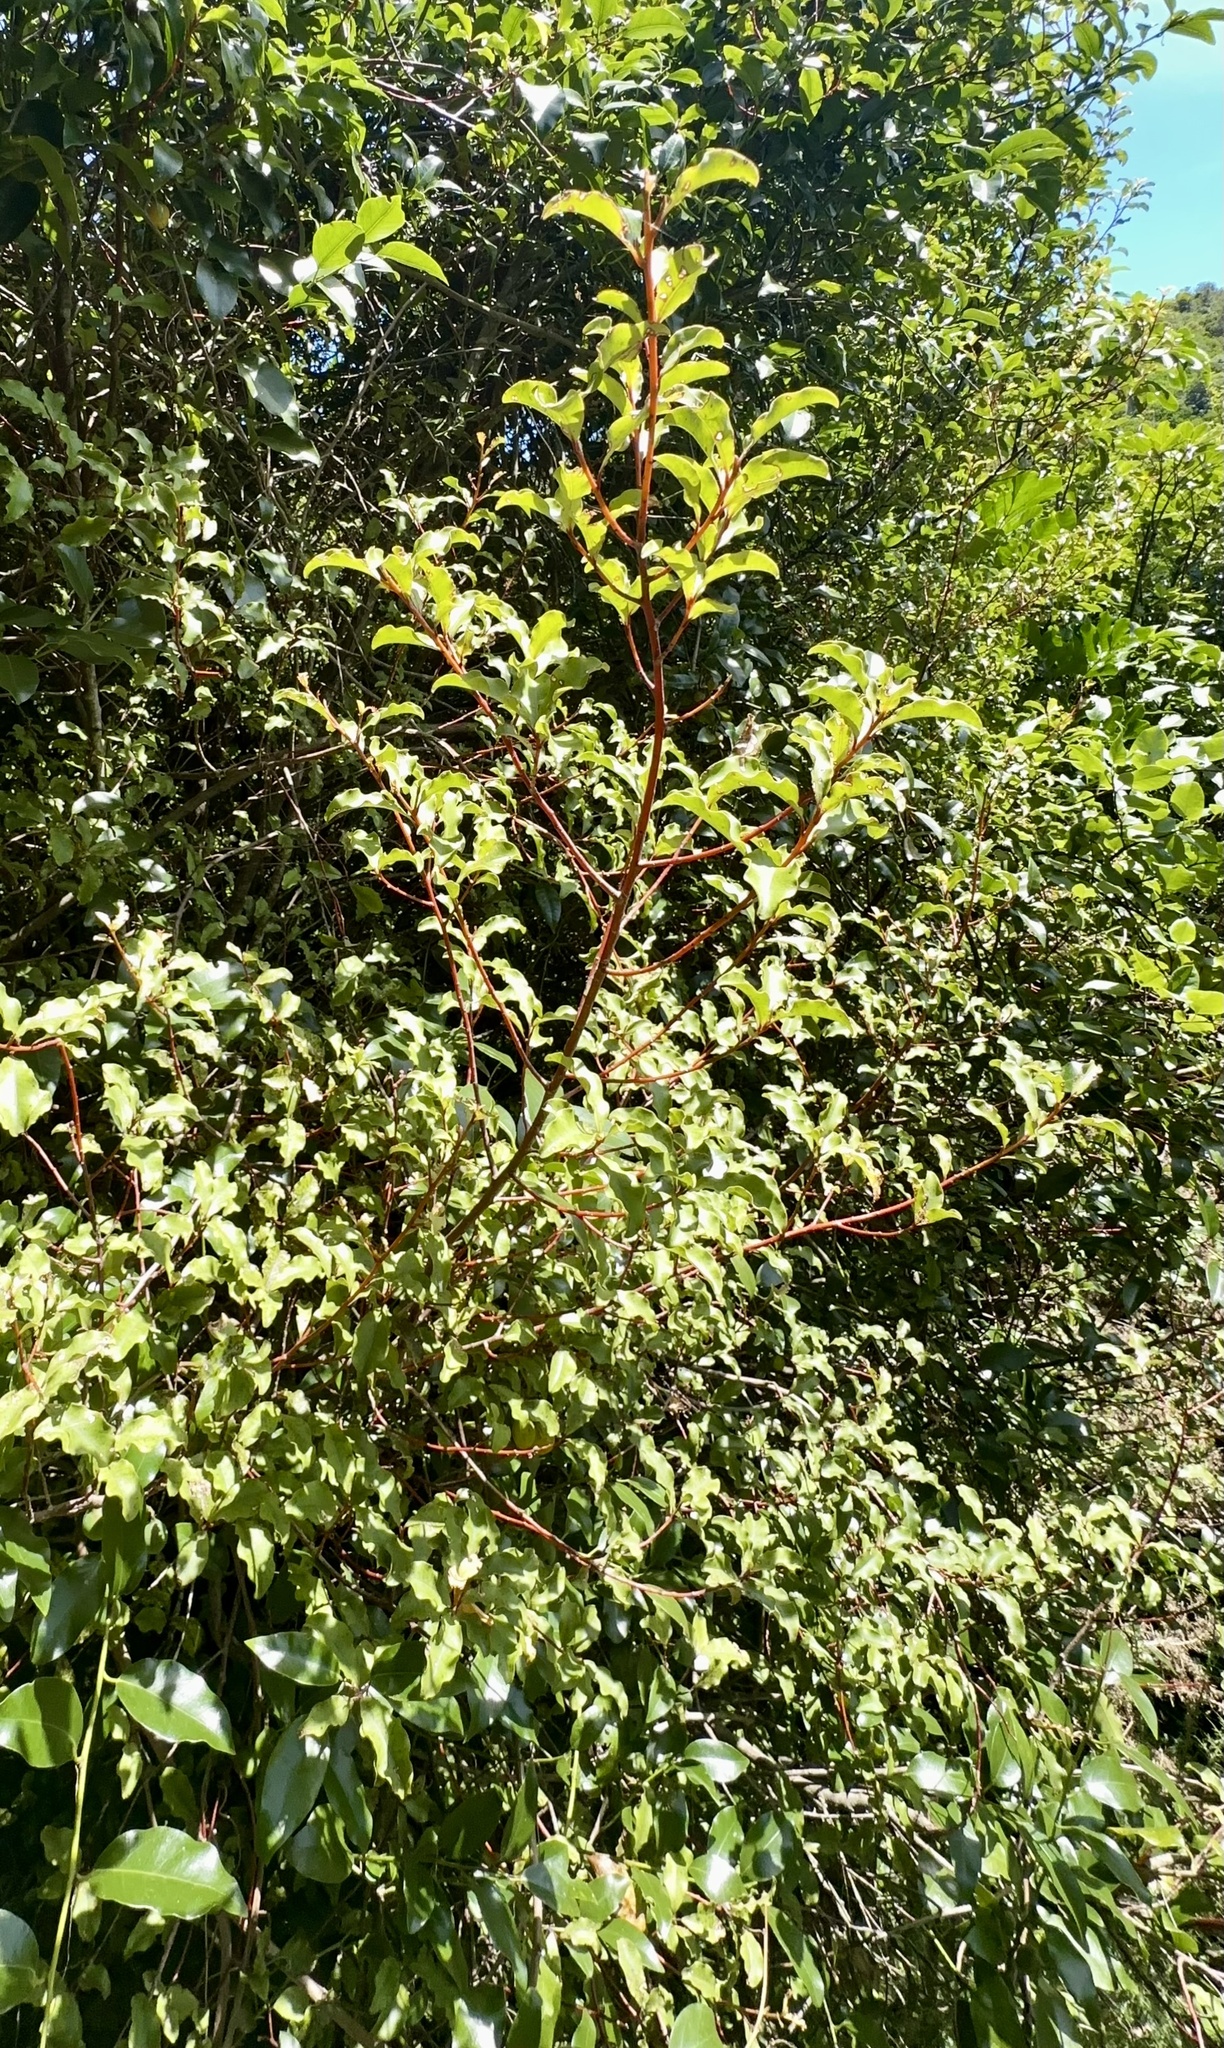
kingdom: Plantae
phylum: Tracheophyta
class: Magnoliopsida
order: Ericales
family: Primulaceae
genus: Myrsine
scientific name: Myrsine australis
